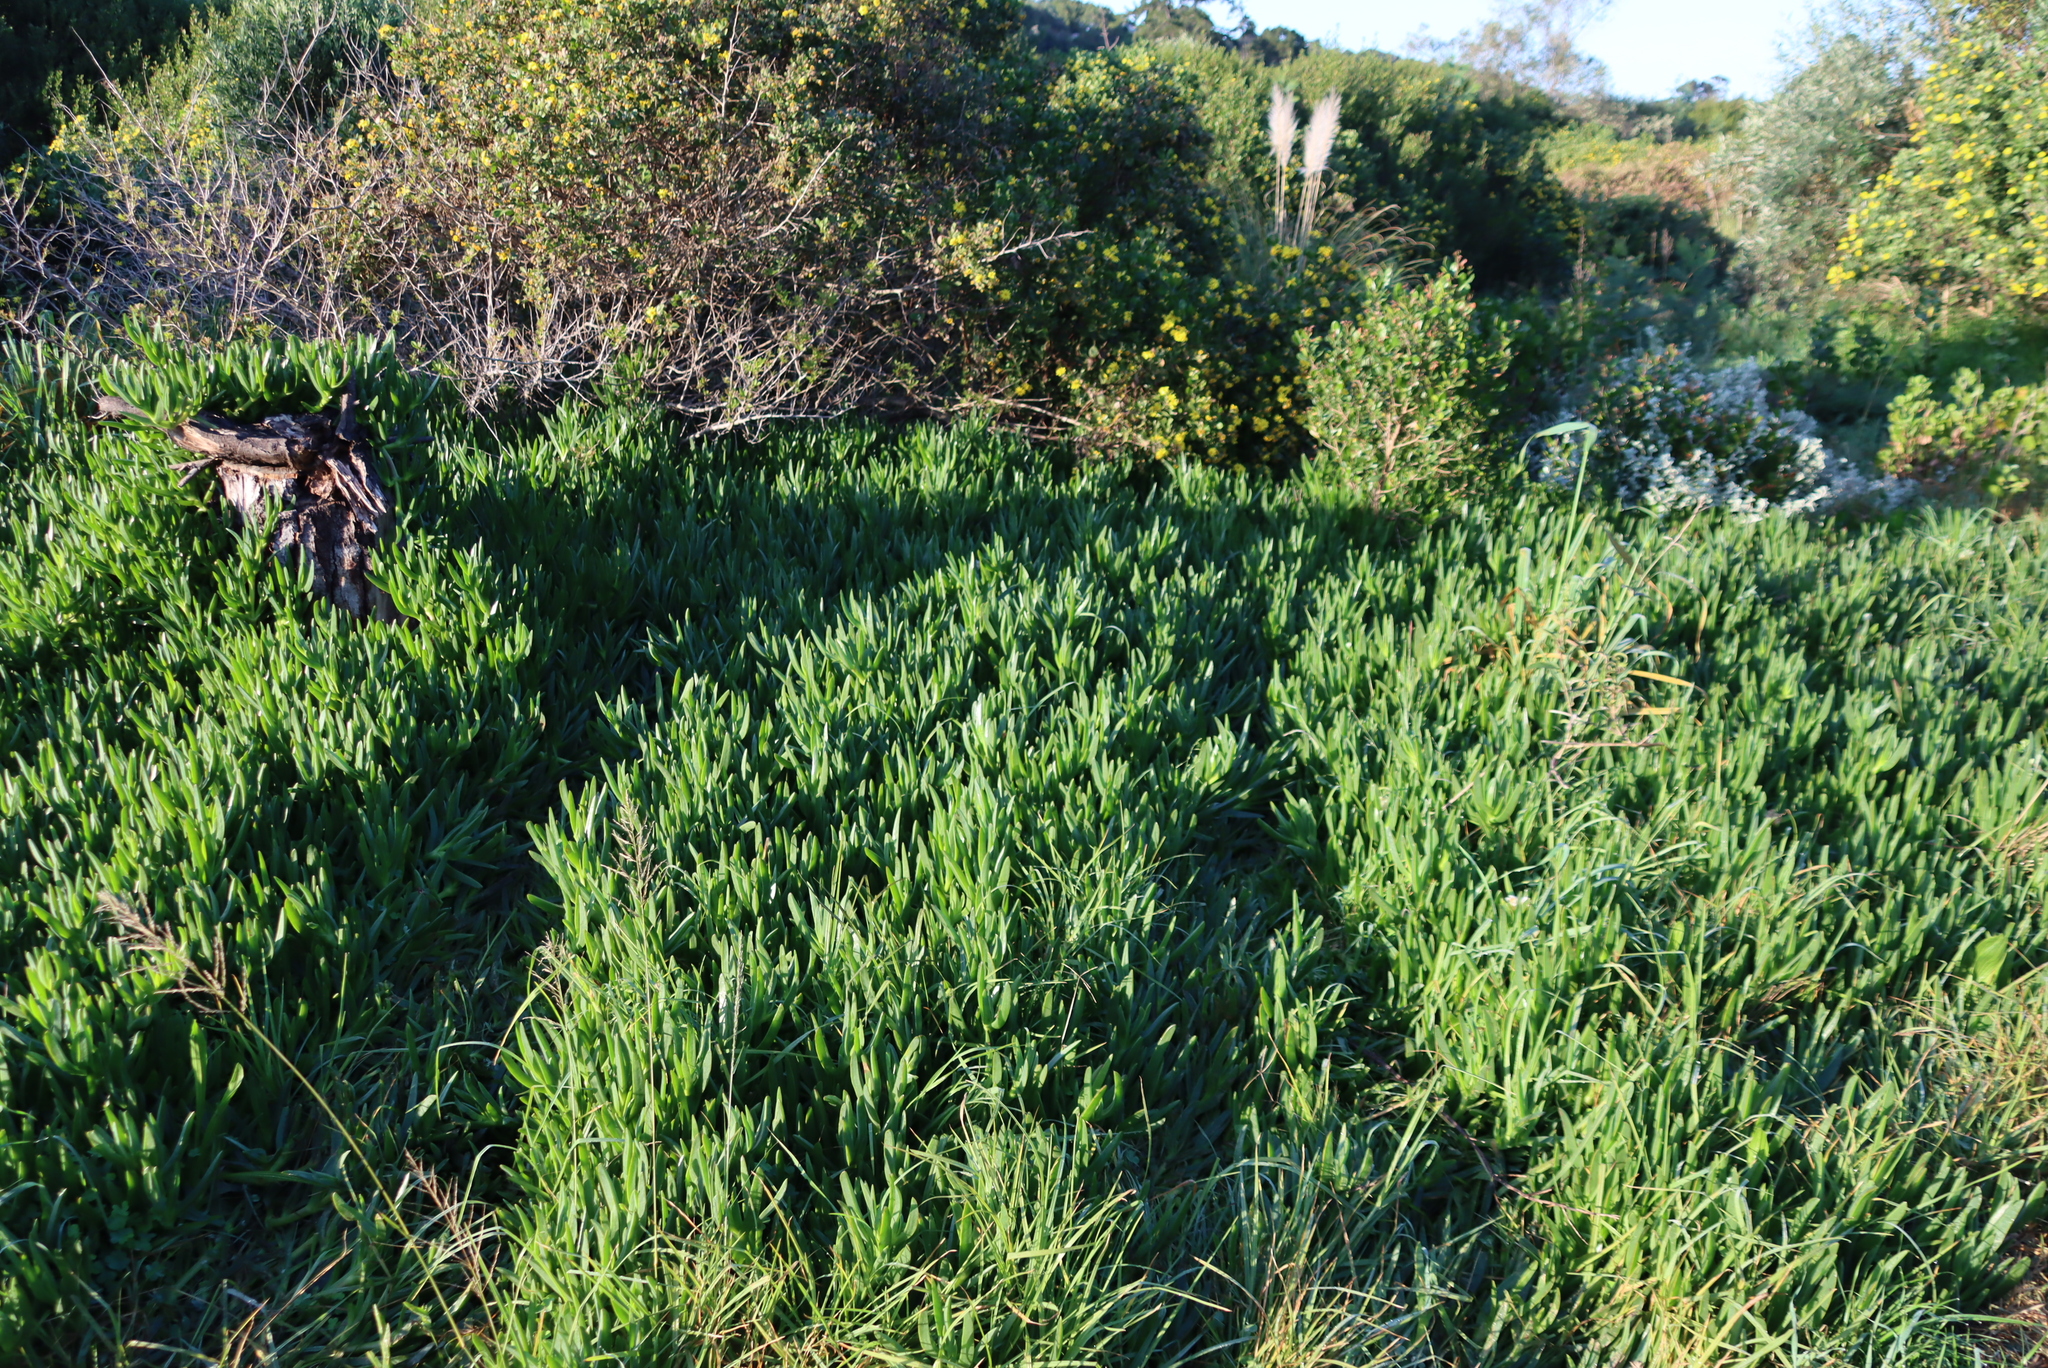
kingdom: Plantae
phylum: Tracheophyta
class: Magnoliopsida
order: Caryophyllales
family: Aizoaceae
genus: Carpobrotus
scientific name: Carpobrotus deliciosus
